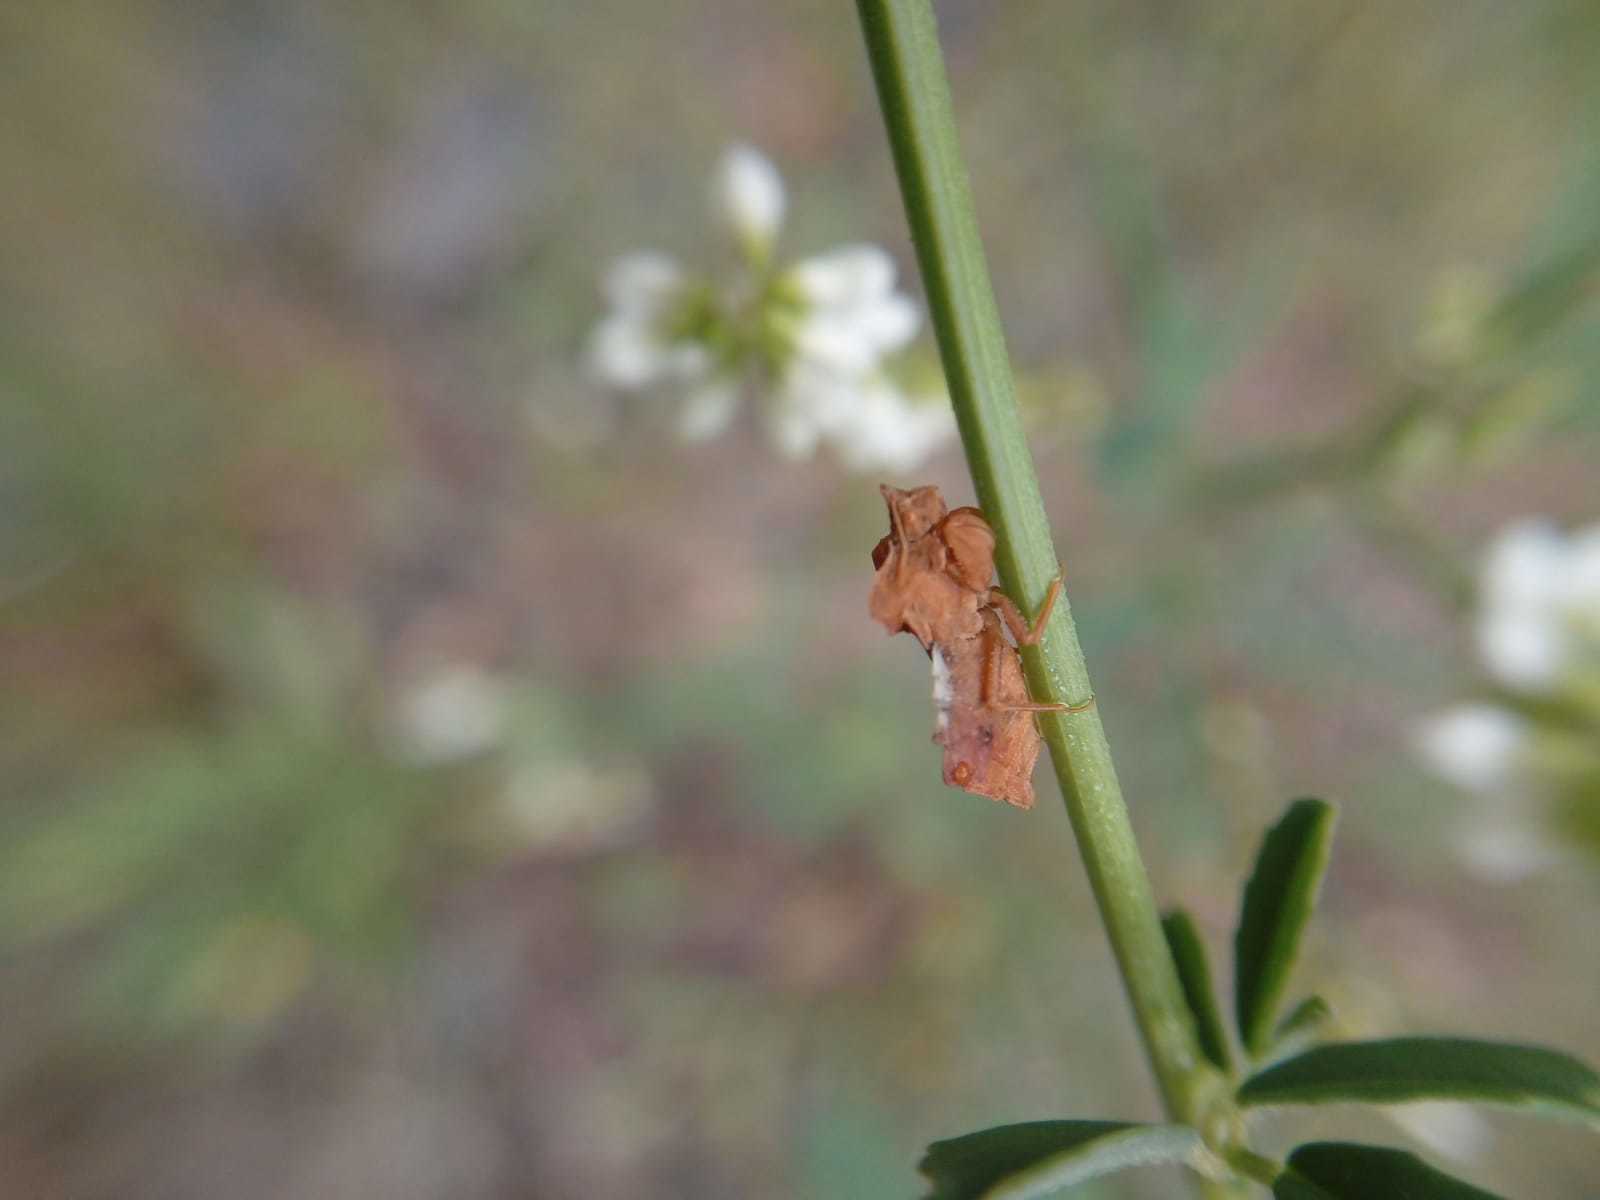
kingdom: Animalia
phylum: Arthropoda
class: Insecta
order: Hemiptera
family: Reduviidae
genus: Phymata
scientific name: Phymata crassipes
